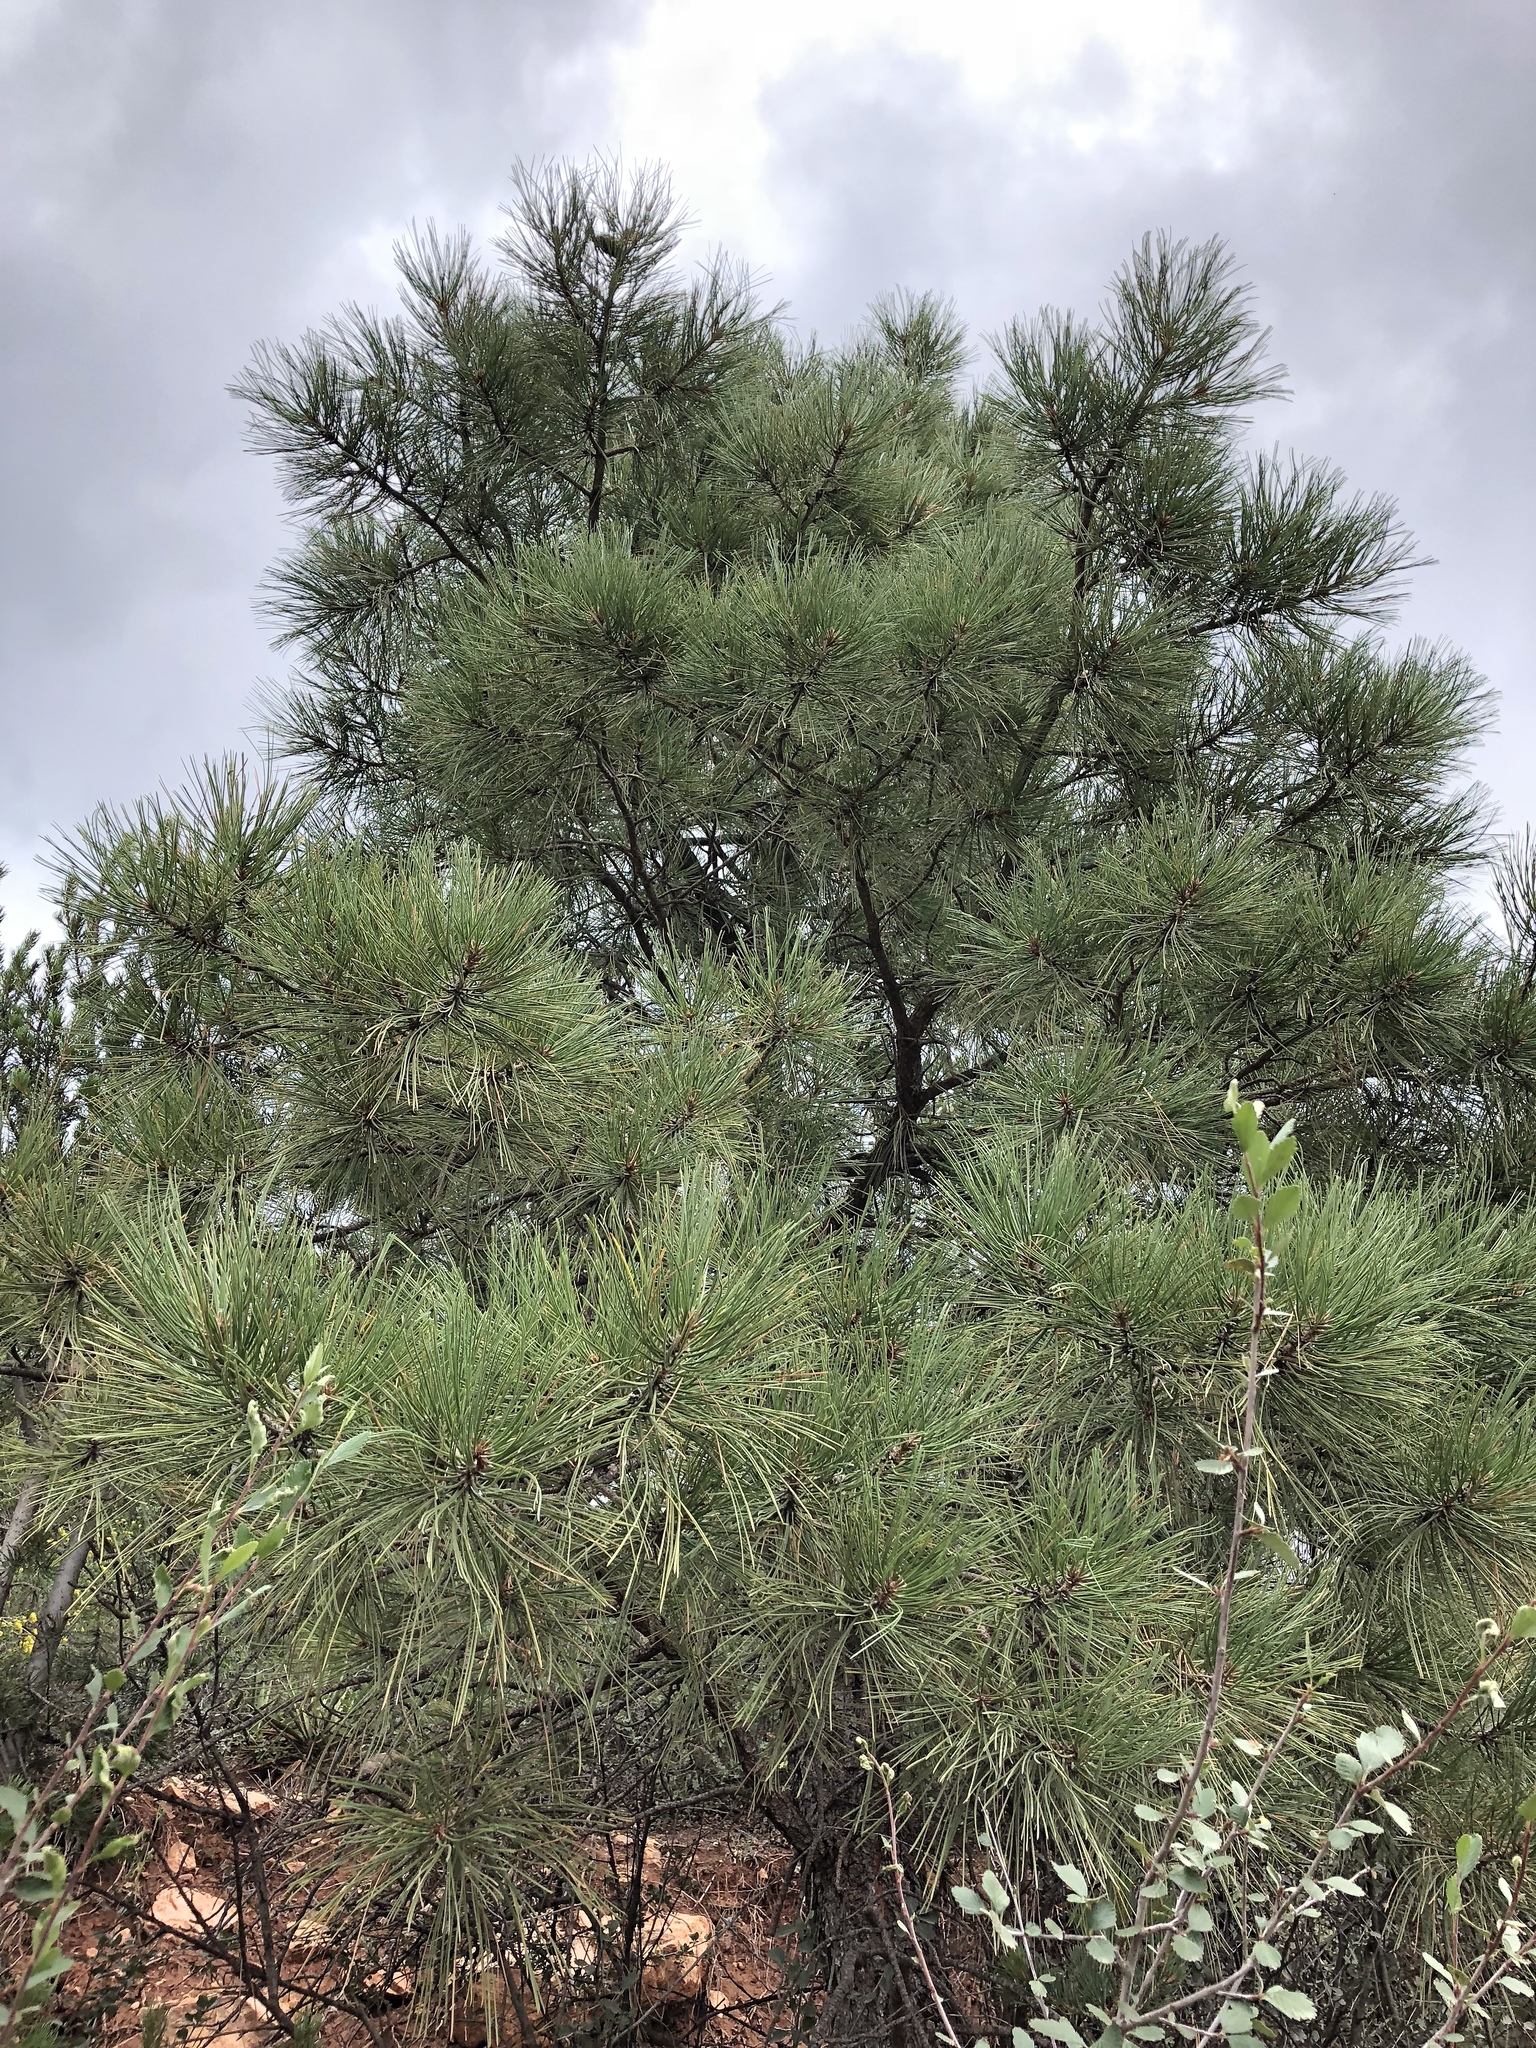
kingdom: Plantae
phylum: Tracheophyta
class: Pinopsida
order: Pinales
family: Pinaceae
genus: Pinus
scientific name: Pinus ponderosa
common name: Western yellow-pine
